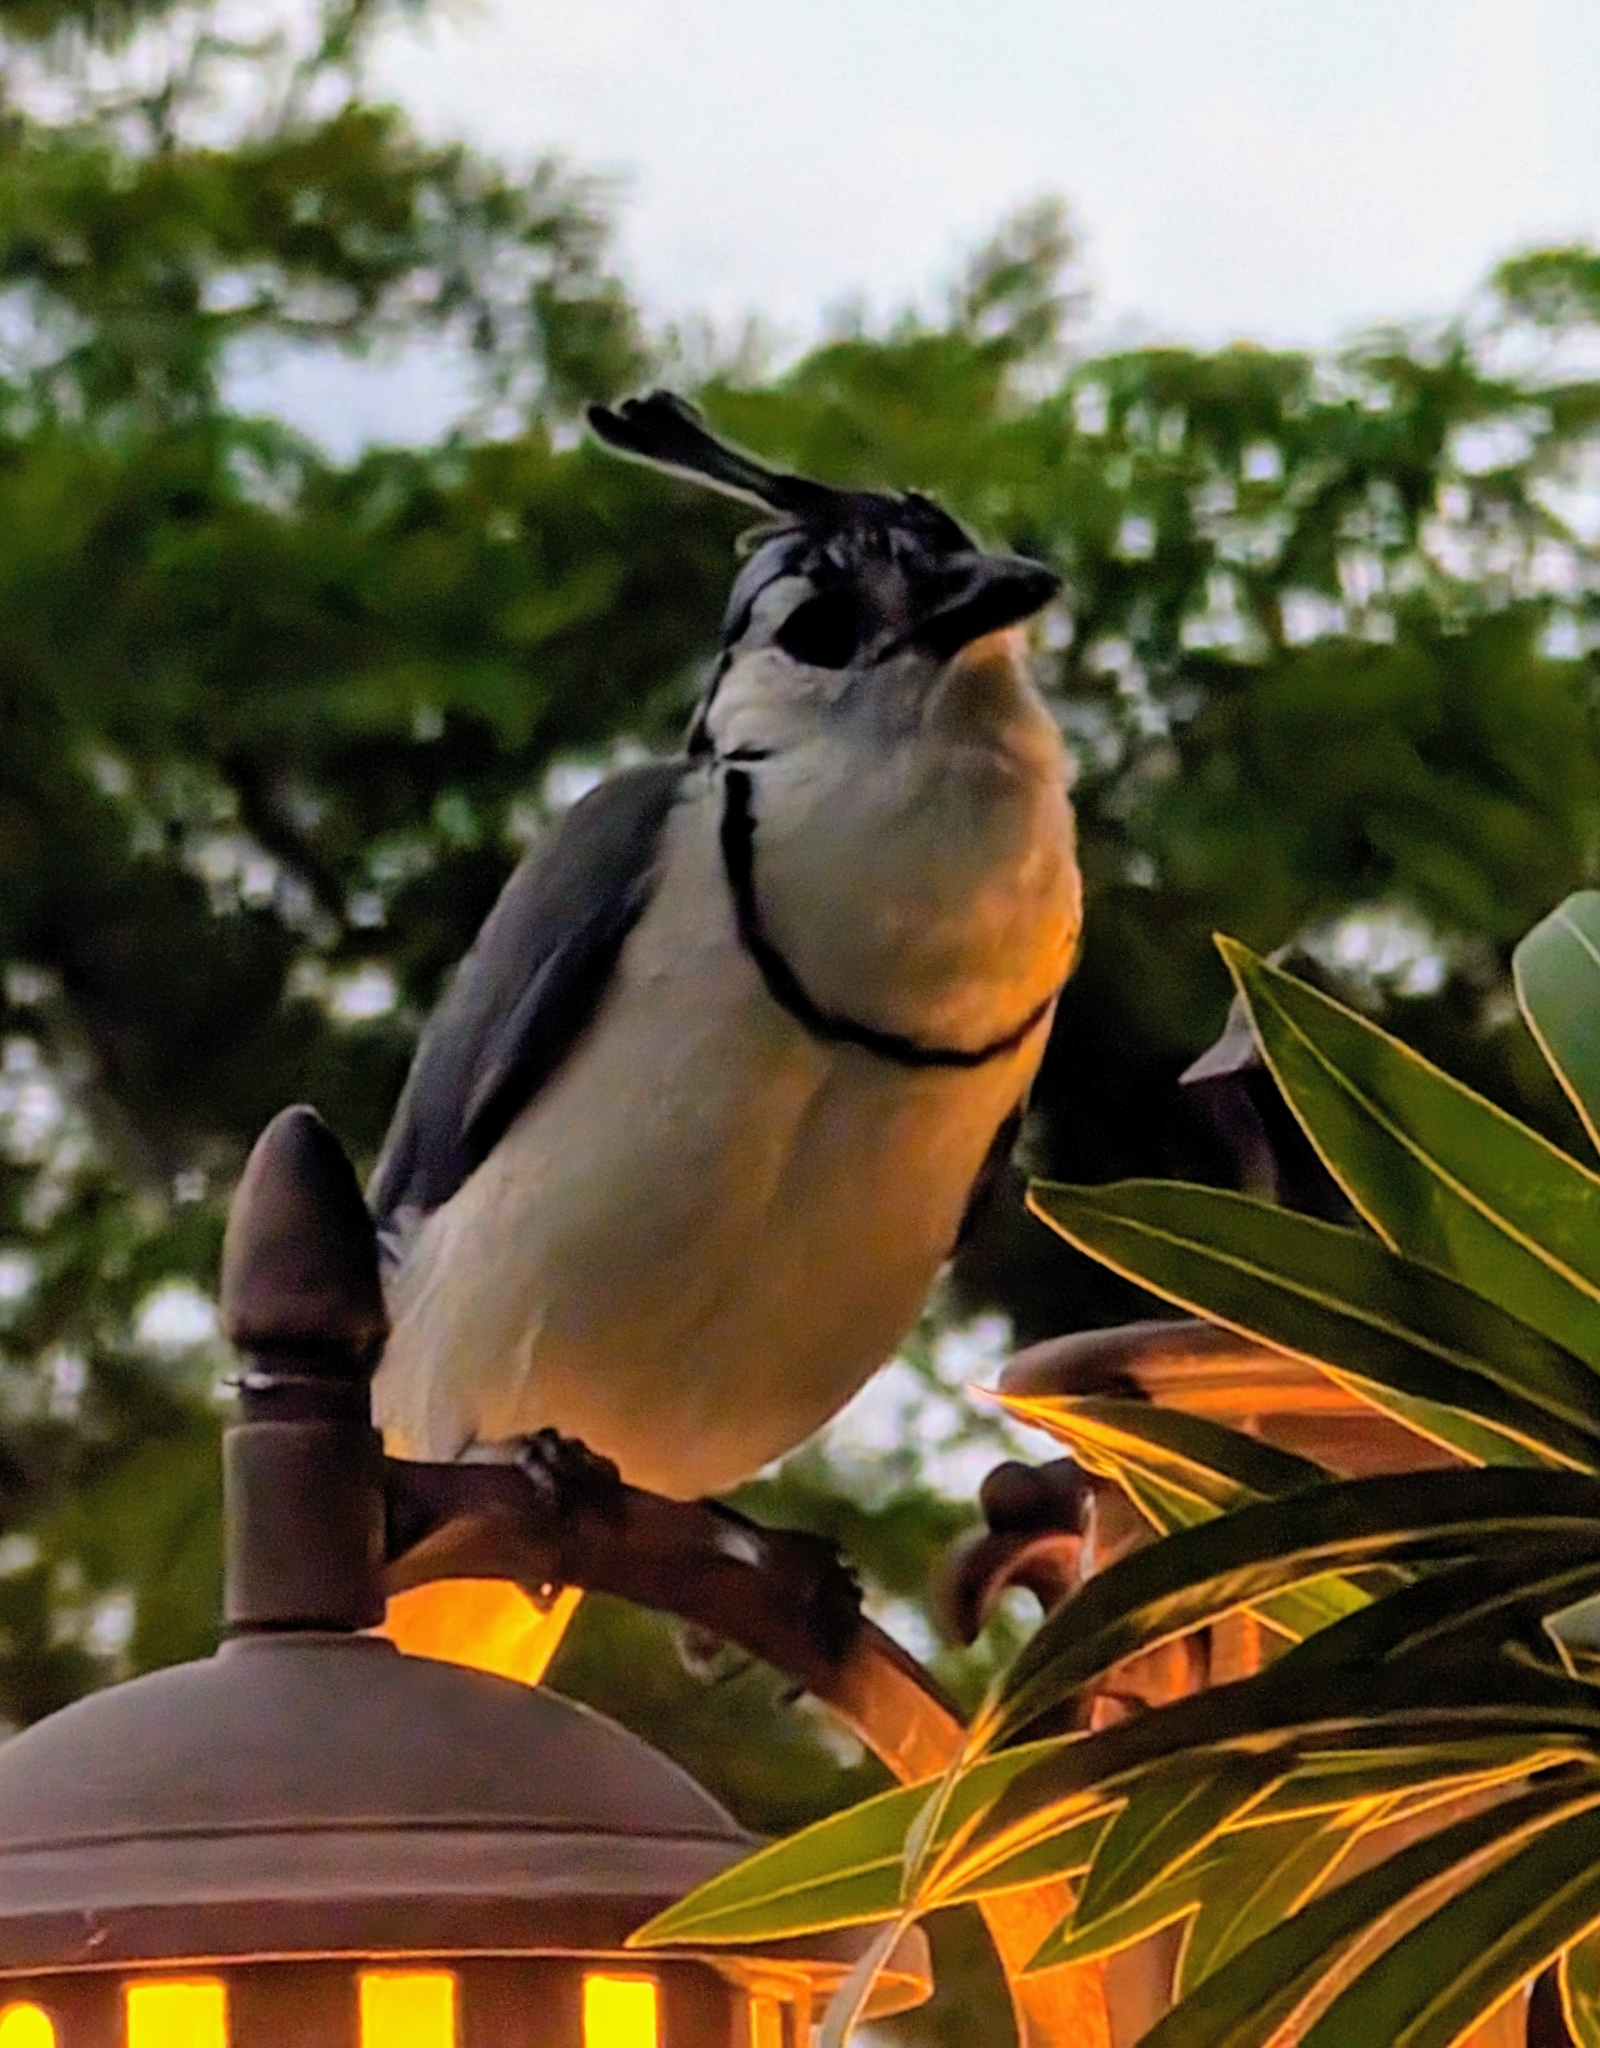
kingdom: Animalia
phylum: Chordata
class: Aves
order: Passeriformes
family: Corvidae
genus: Calocitta
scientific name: Calocitta formosa
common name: White-throated magpie-jay
